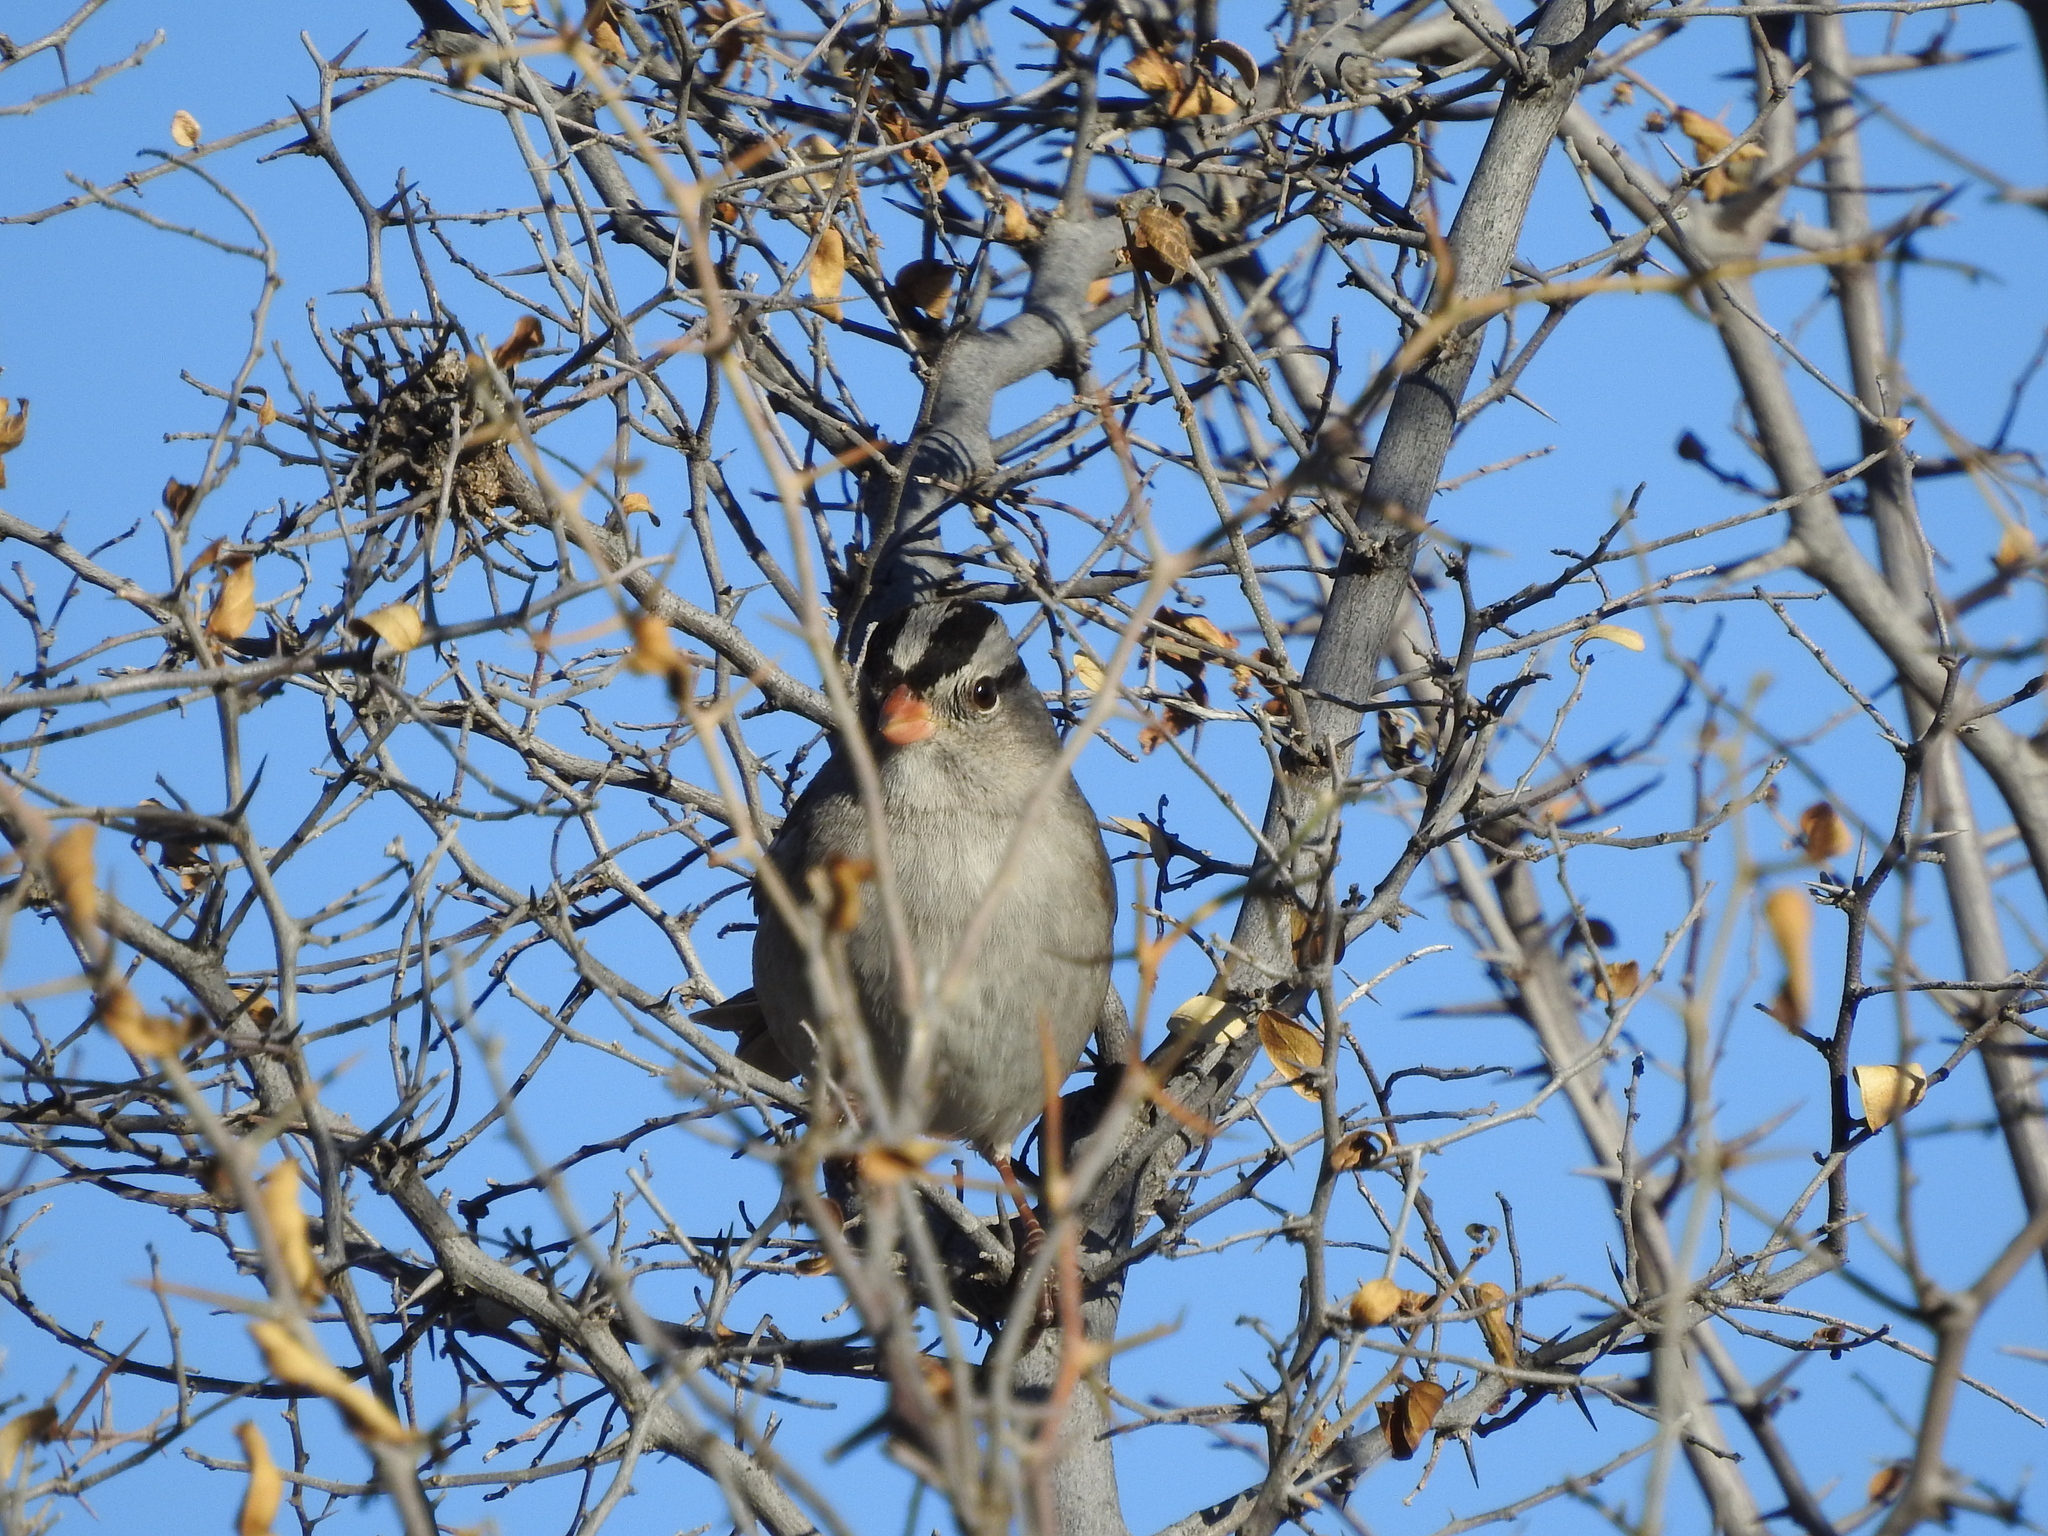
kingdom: Animalia
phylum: Chordata
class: Aves
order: Passeriformes
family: Passerellidae
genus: Zonotrichia
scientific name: Zonotrichia leucophrys
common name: White-crowned sparrow
